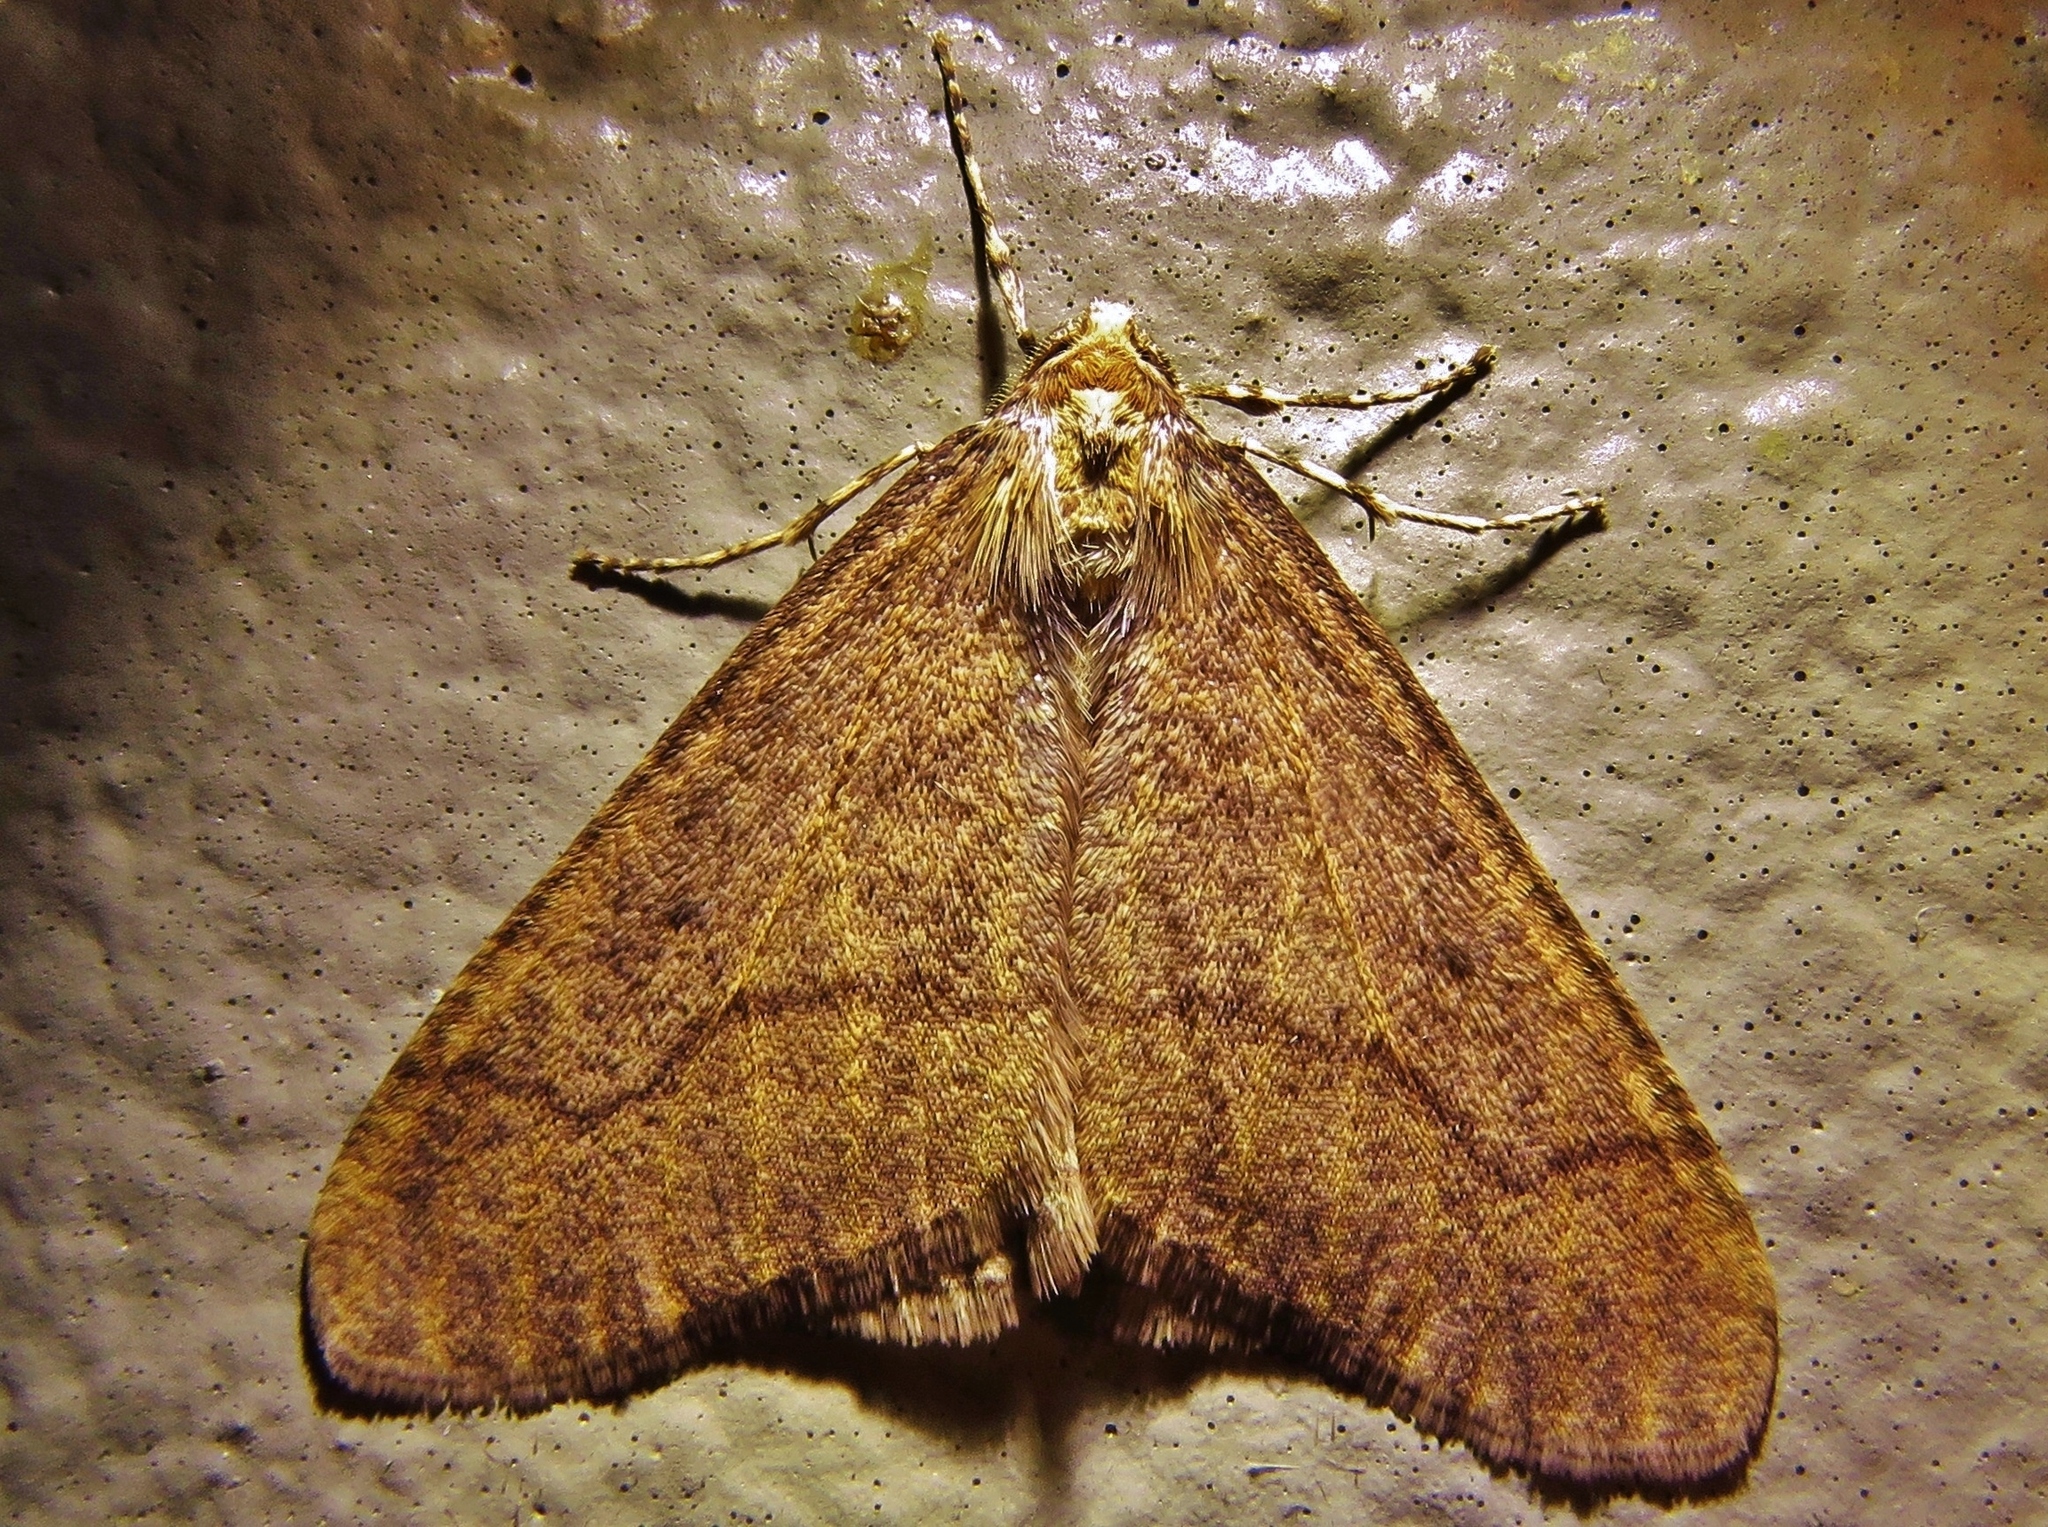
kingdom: Animalia
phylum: Arthropoda
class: Insecta
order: Lepidoptera
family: Geometridae
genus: Erannis
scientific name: Erannis tiliaria
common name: Linden looper
